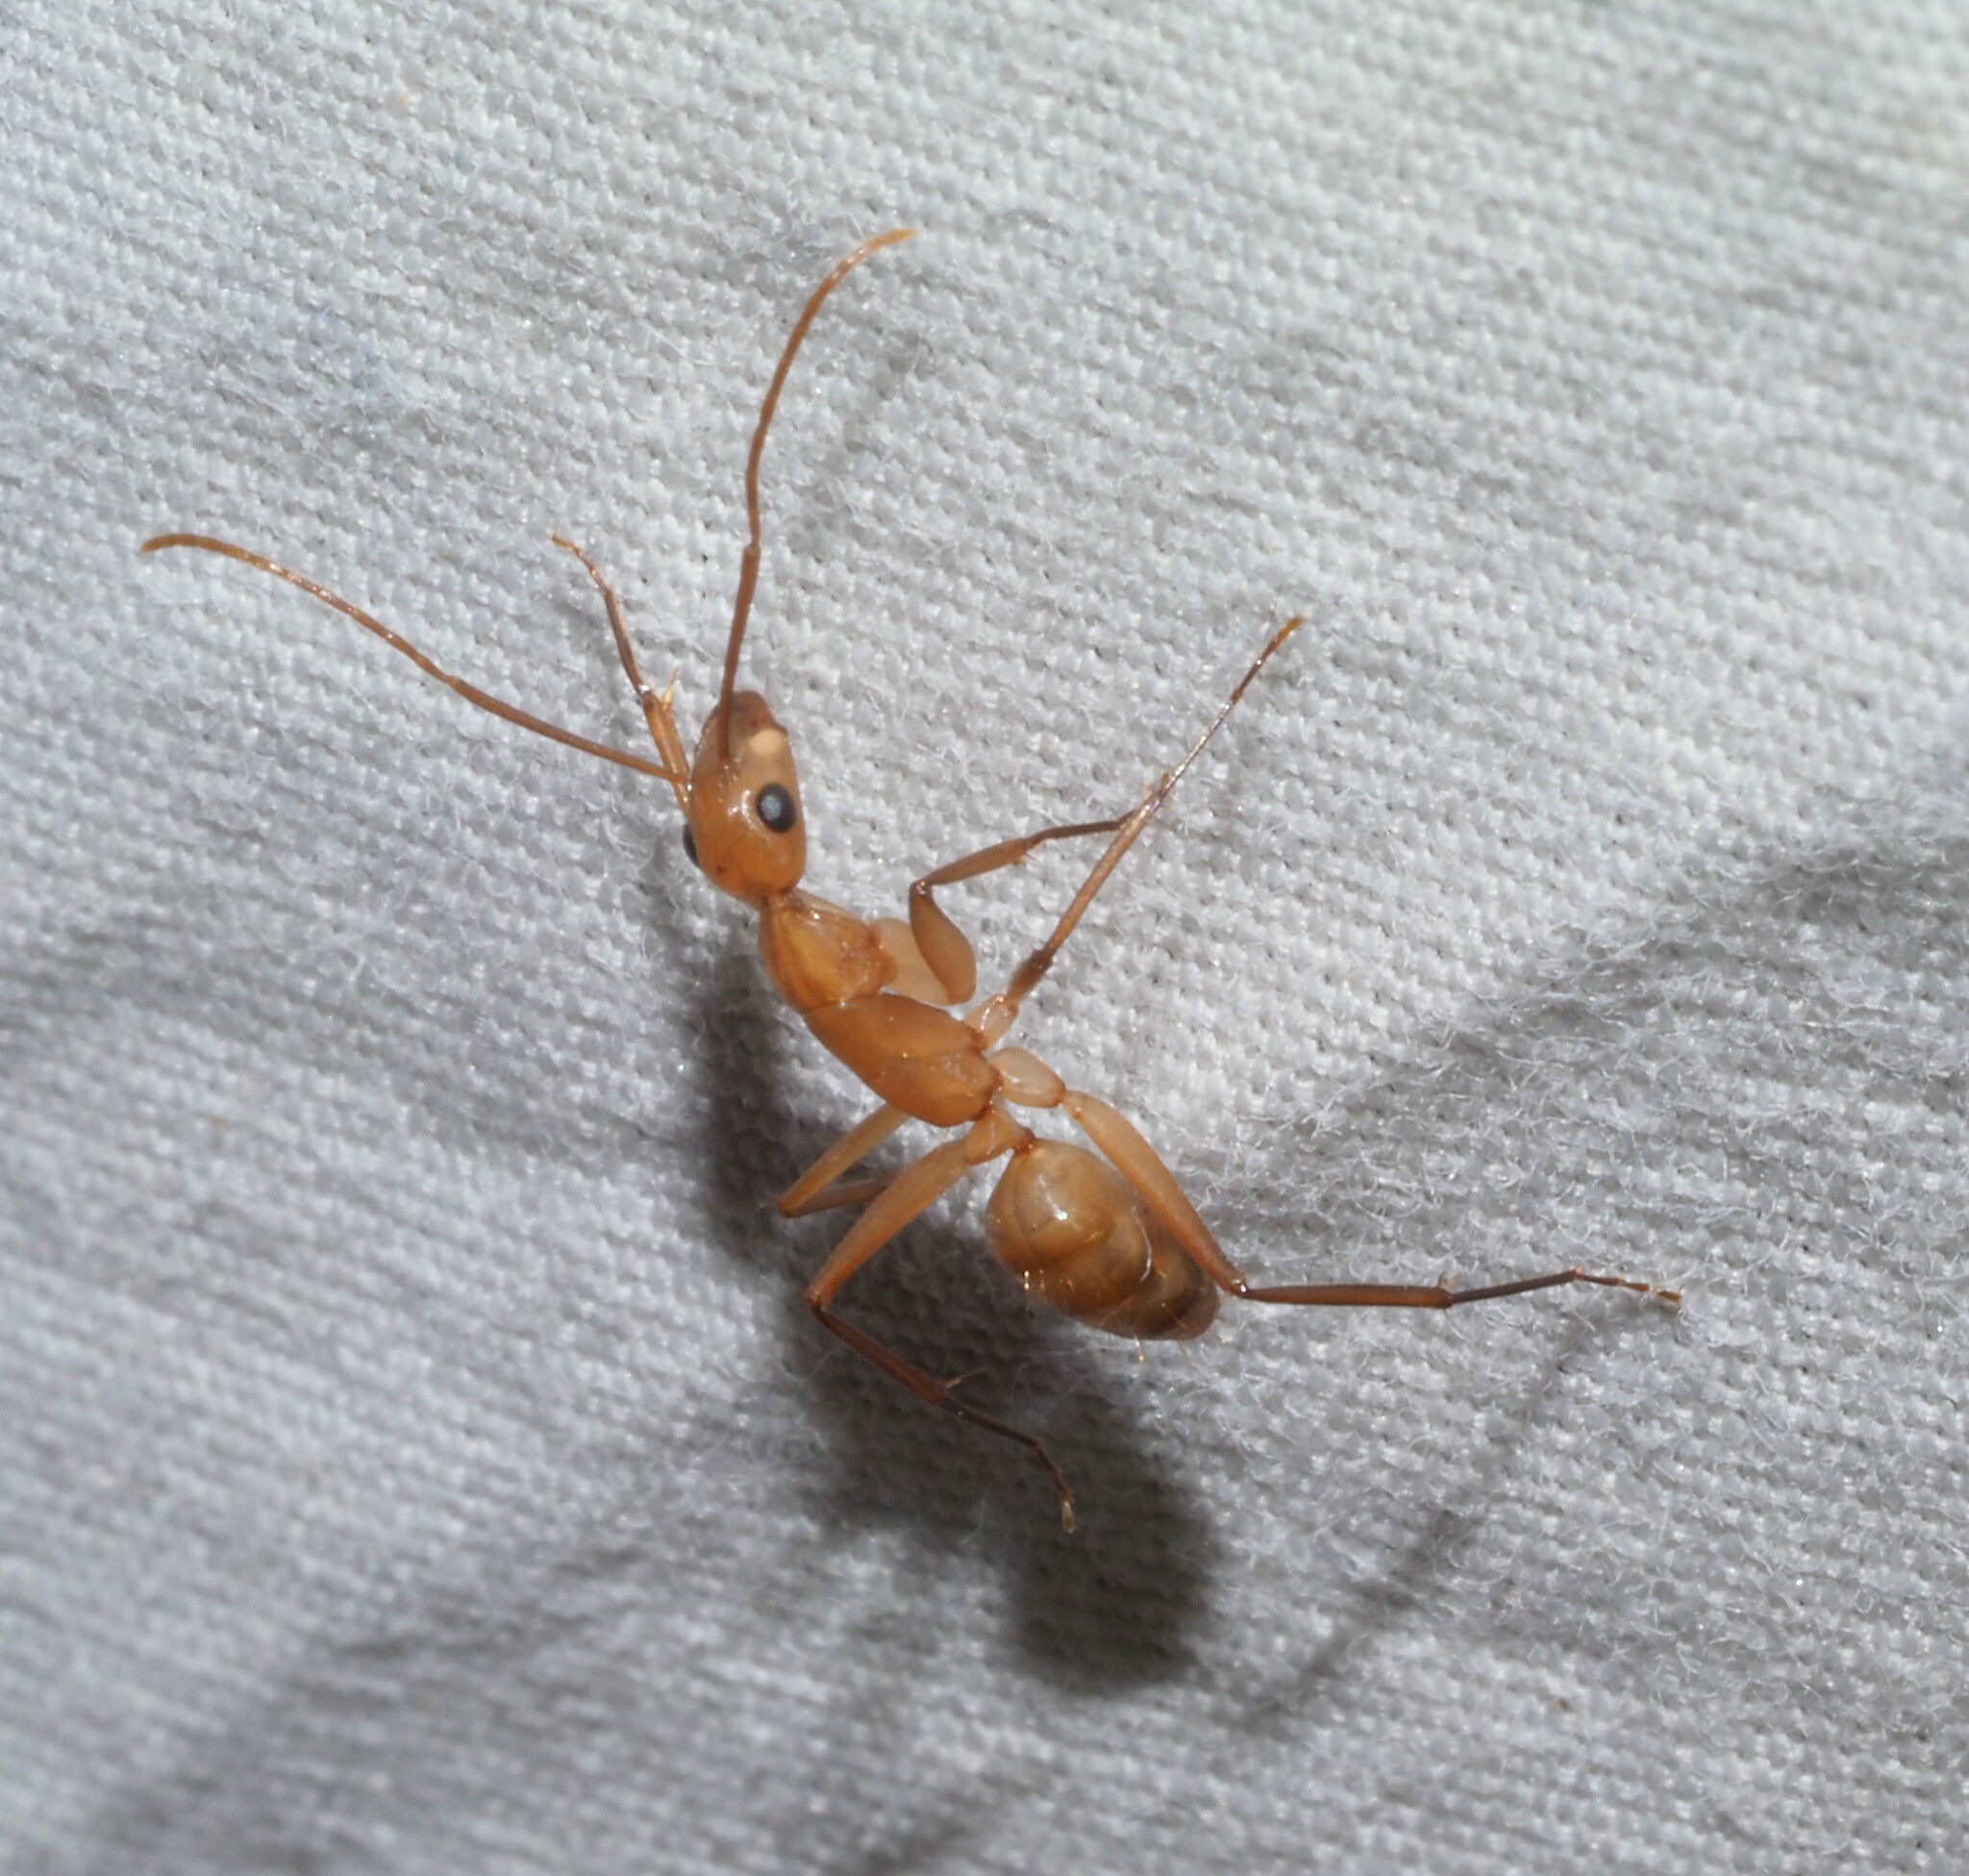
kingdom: Animalia
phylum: Arthropoda
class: Insecta
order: Hymenoptera
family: Formicidae
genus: Camponotus
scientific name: Camponotus variegatus
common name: Hawaiian carpenter ant
